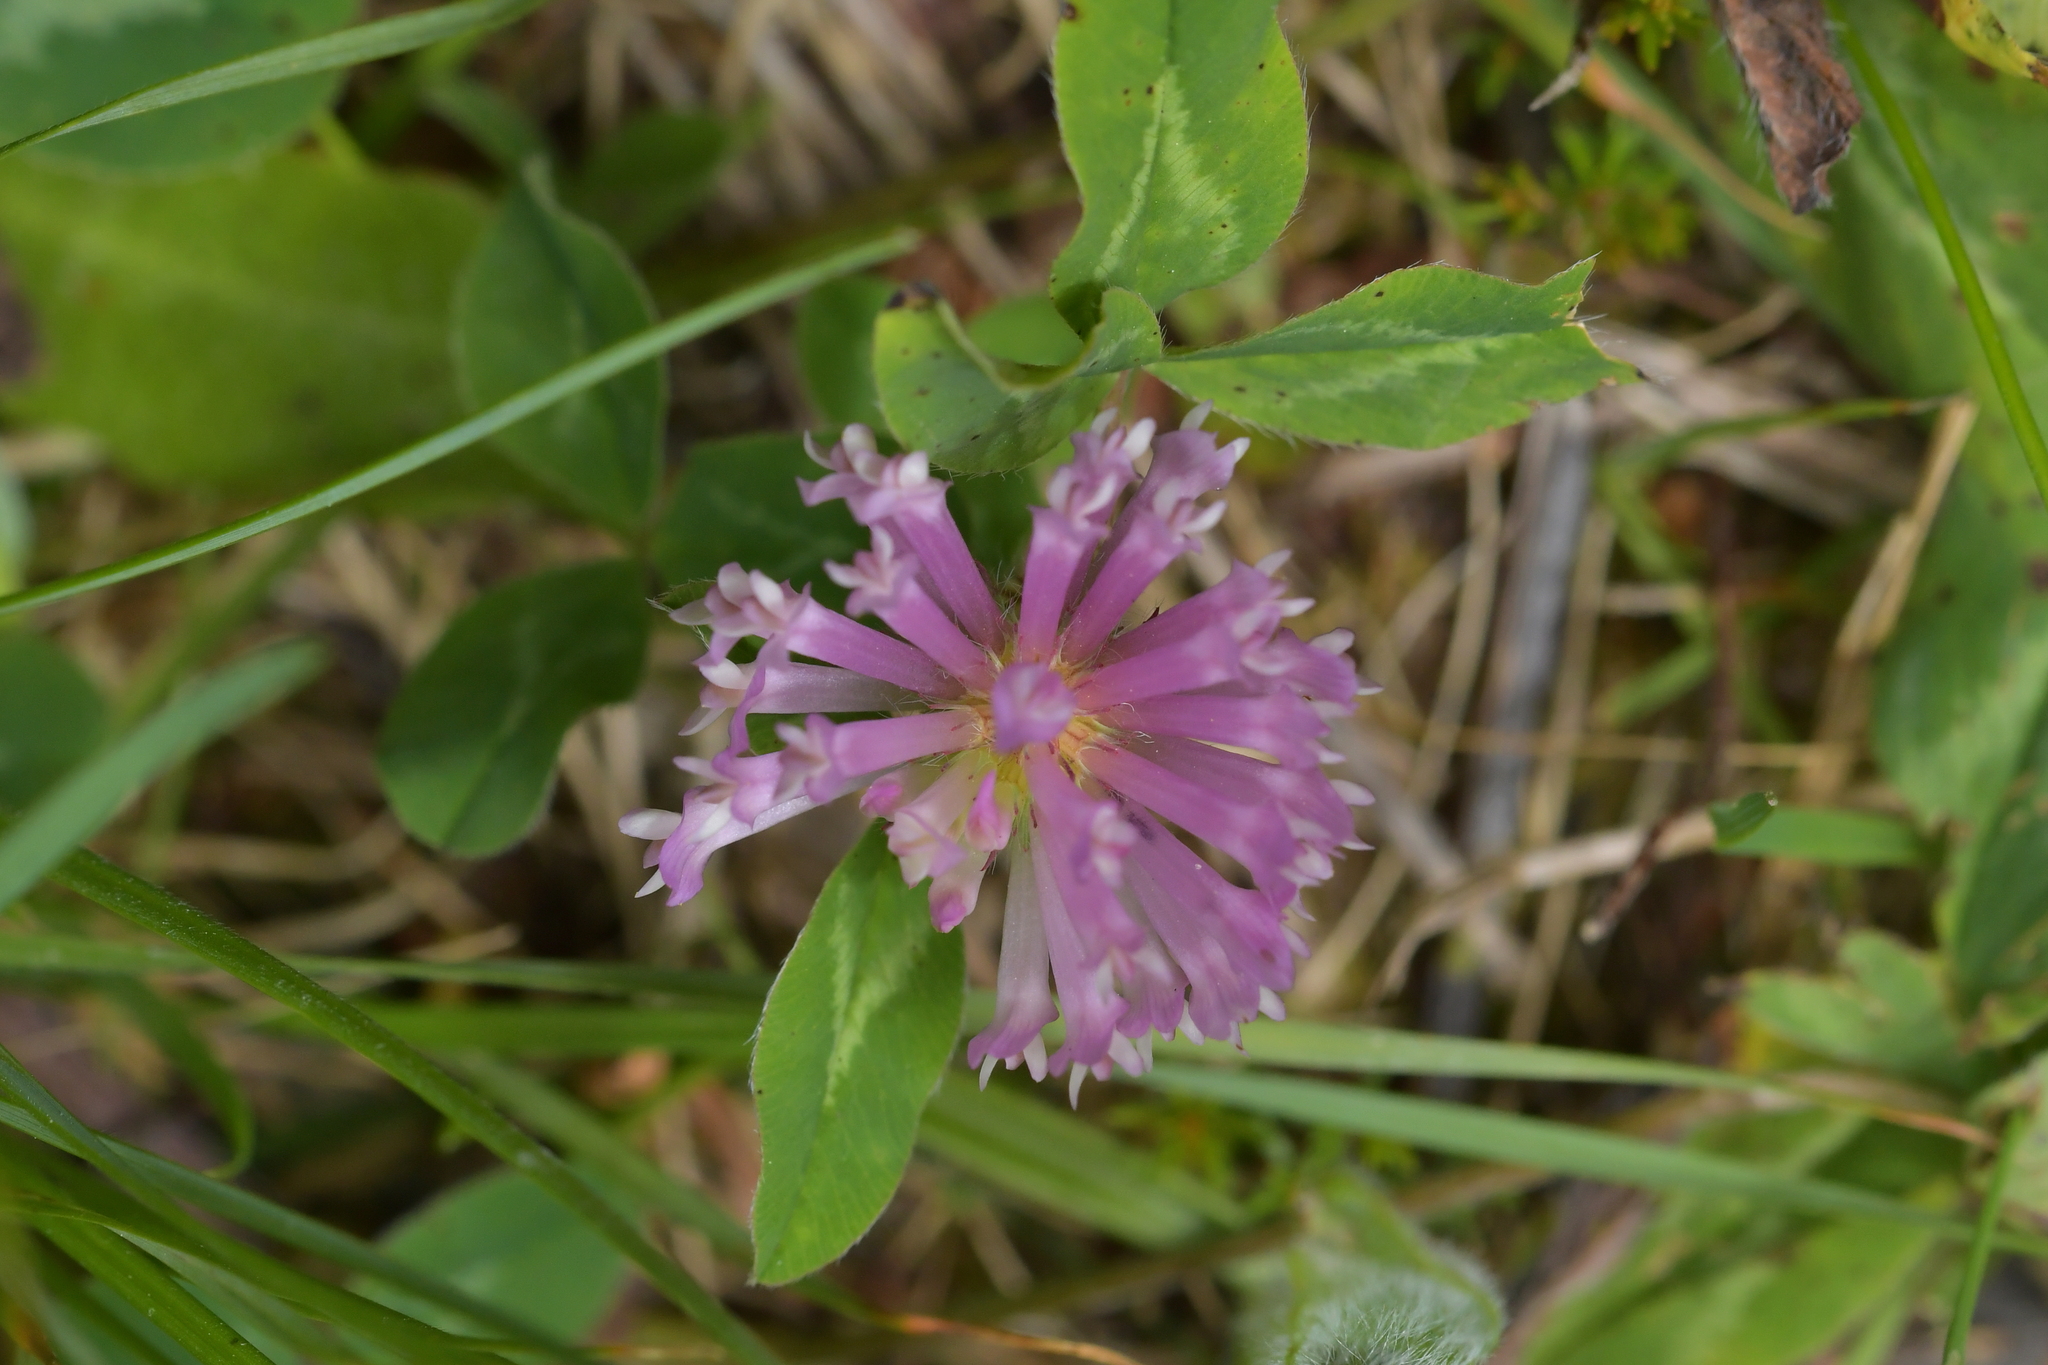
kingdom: Plantae
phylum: Tracheophyta
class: Magnoliopsida
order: Fabales
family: Fabaceae
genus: Trifolium
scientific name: Trifolium pratense
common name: Red clover
